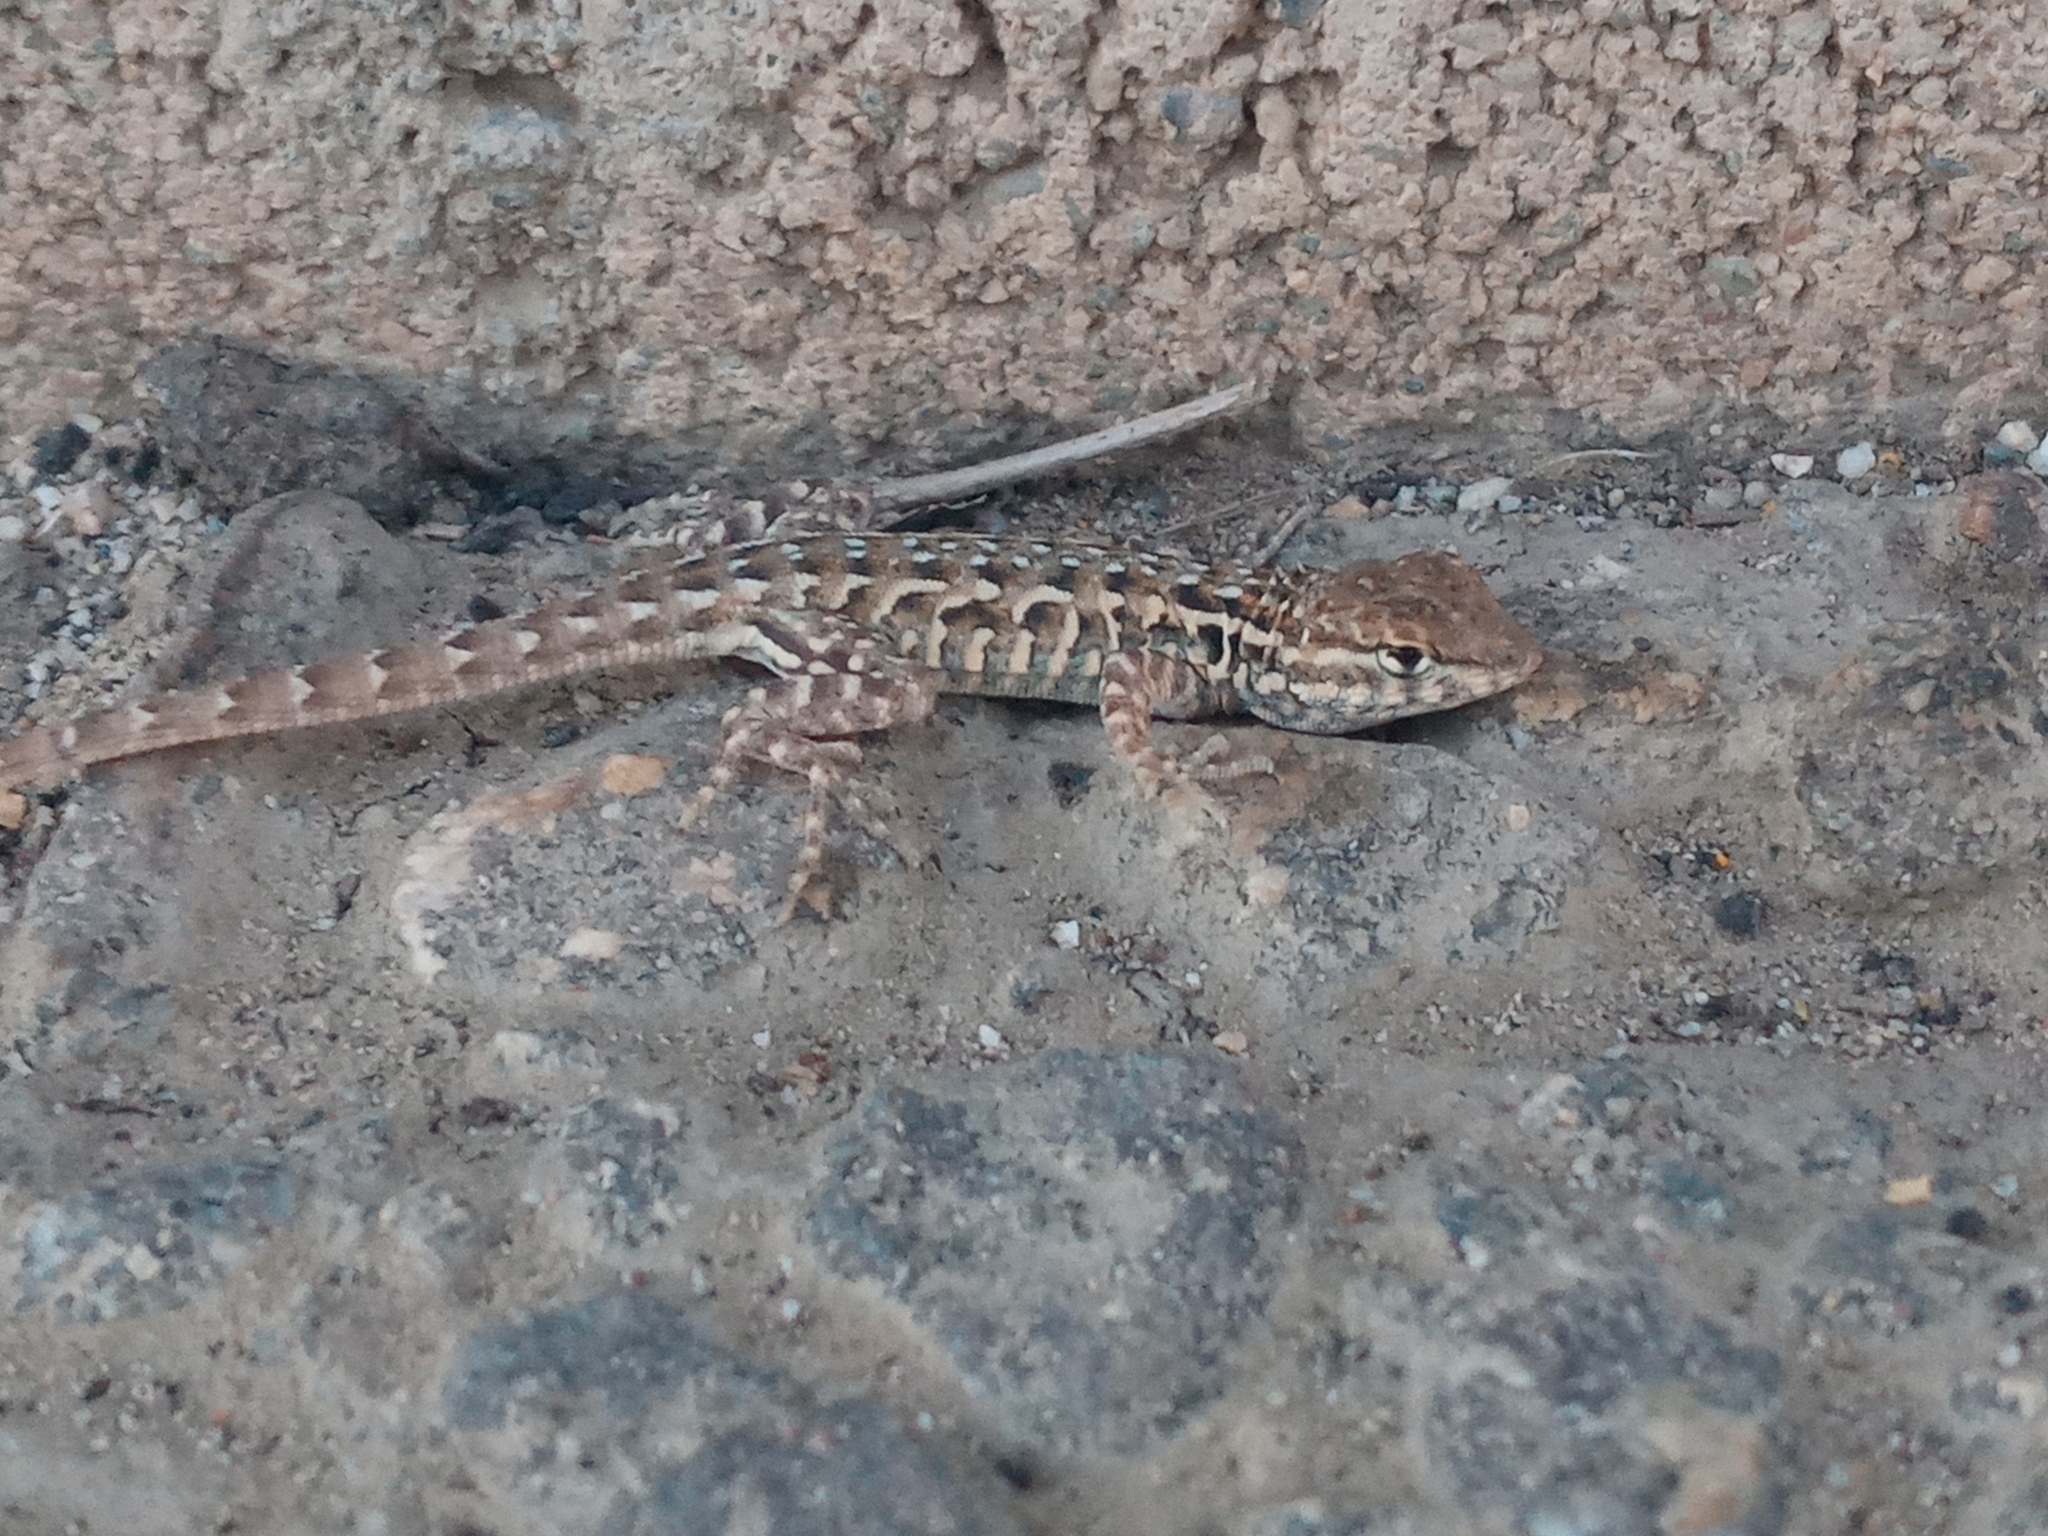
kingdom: Animalia
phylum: Chordata
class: Squamata
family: Phrynosomatidae
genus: Uta
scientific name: Uta stansburiana
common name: Side-blotched lizard
